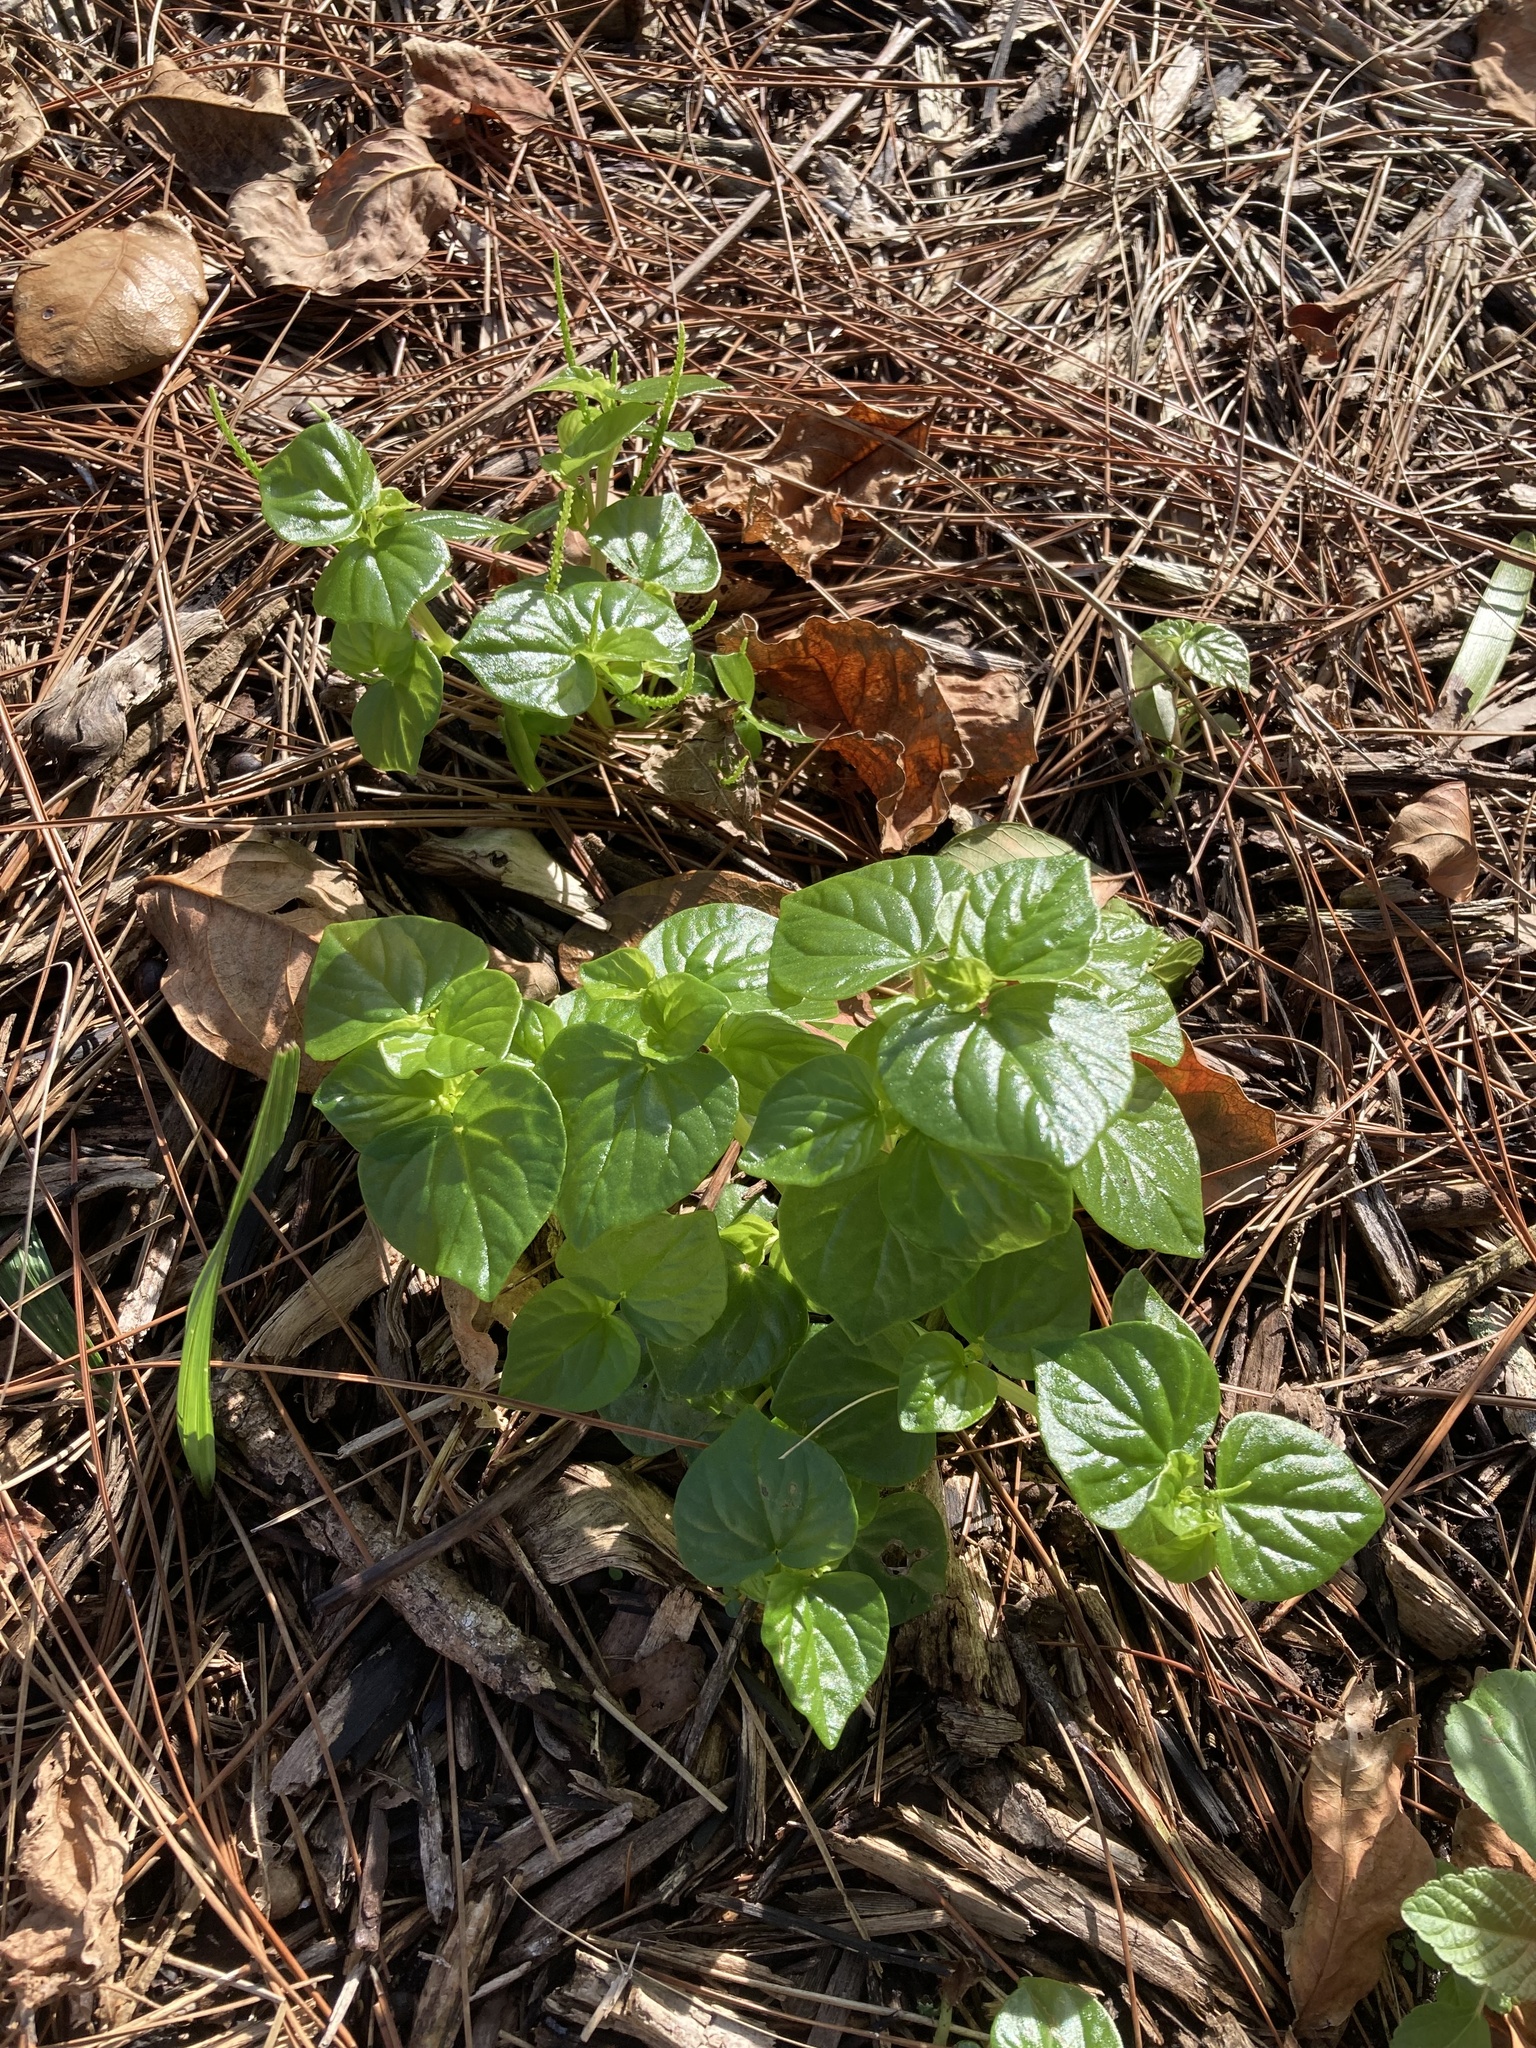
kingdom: Plantae
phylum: Tracheophyta
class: Magnoliopsida
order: Piperales
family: Piperaceae
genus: Peperomia
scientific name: Peperomia pellucida
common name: Man to man
